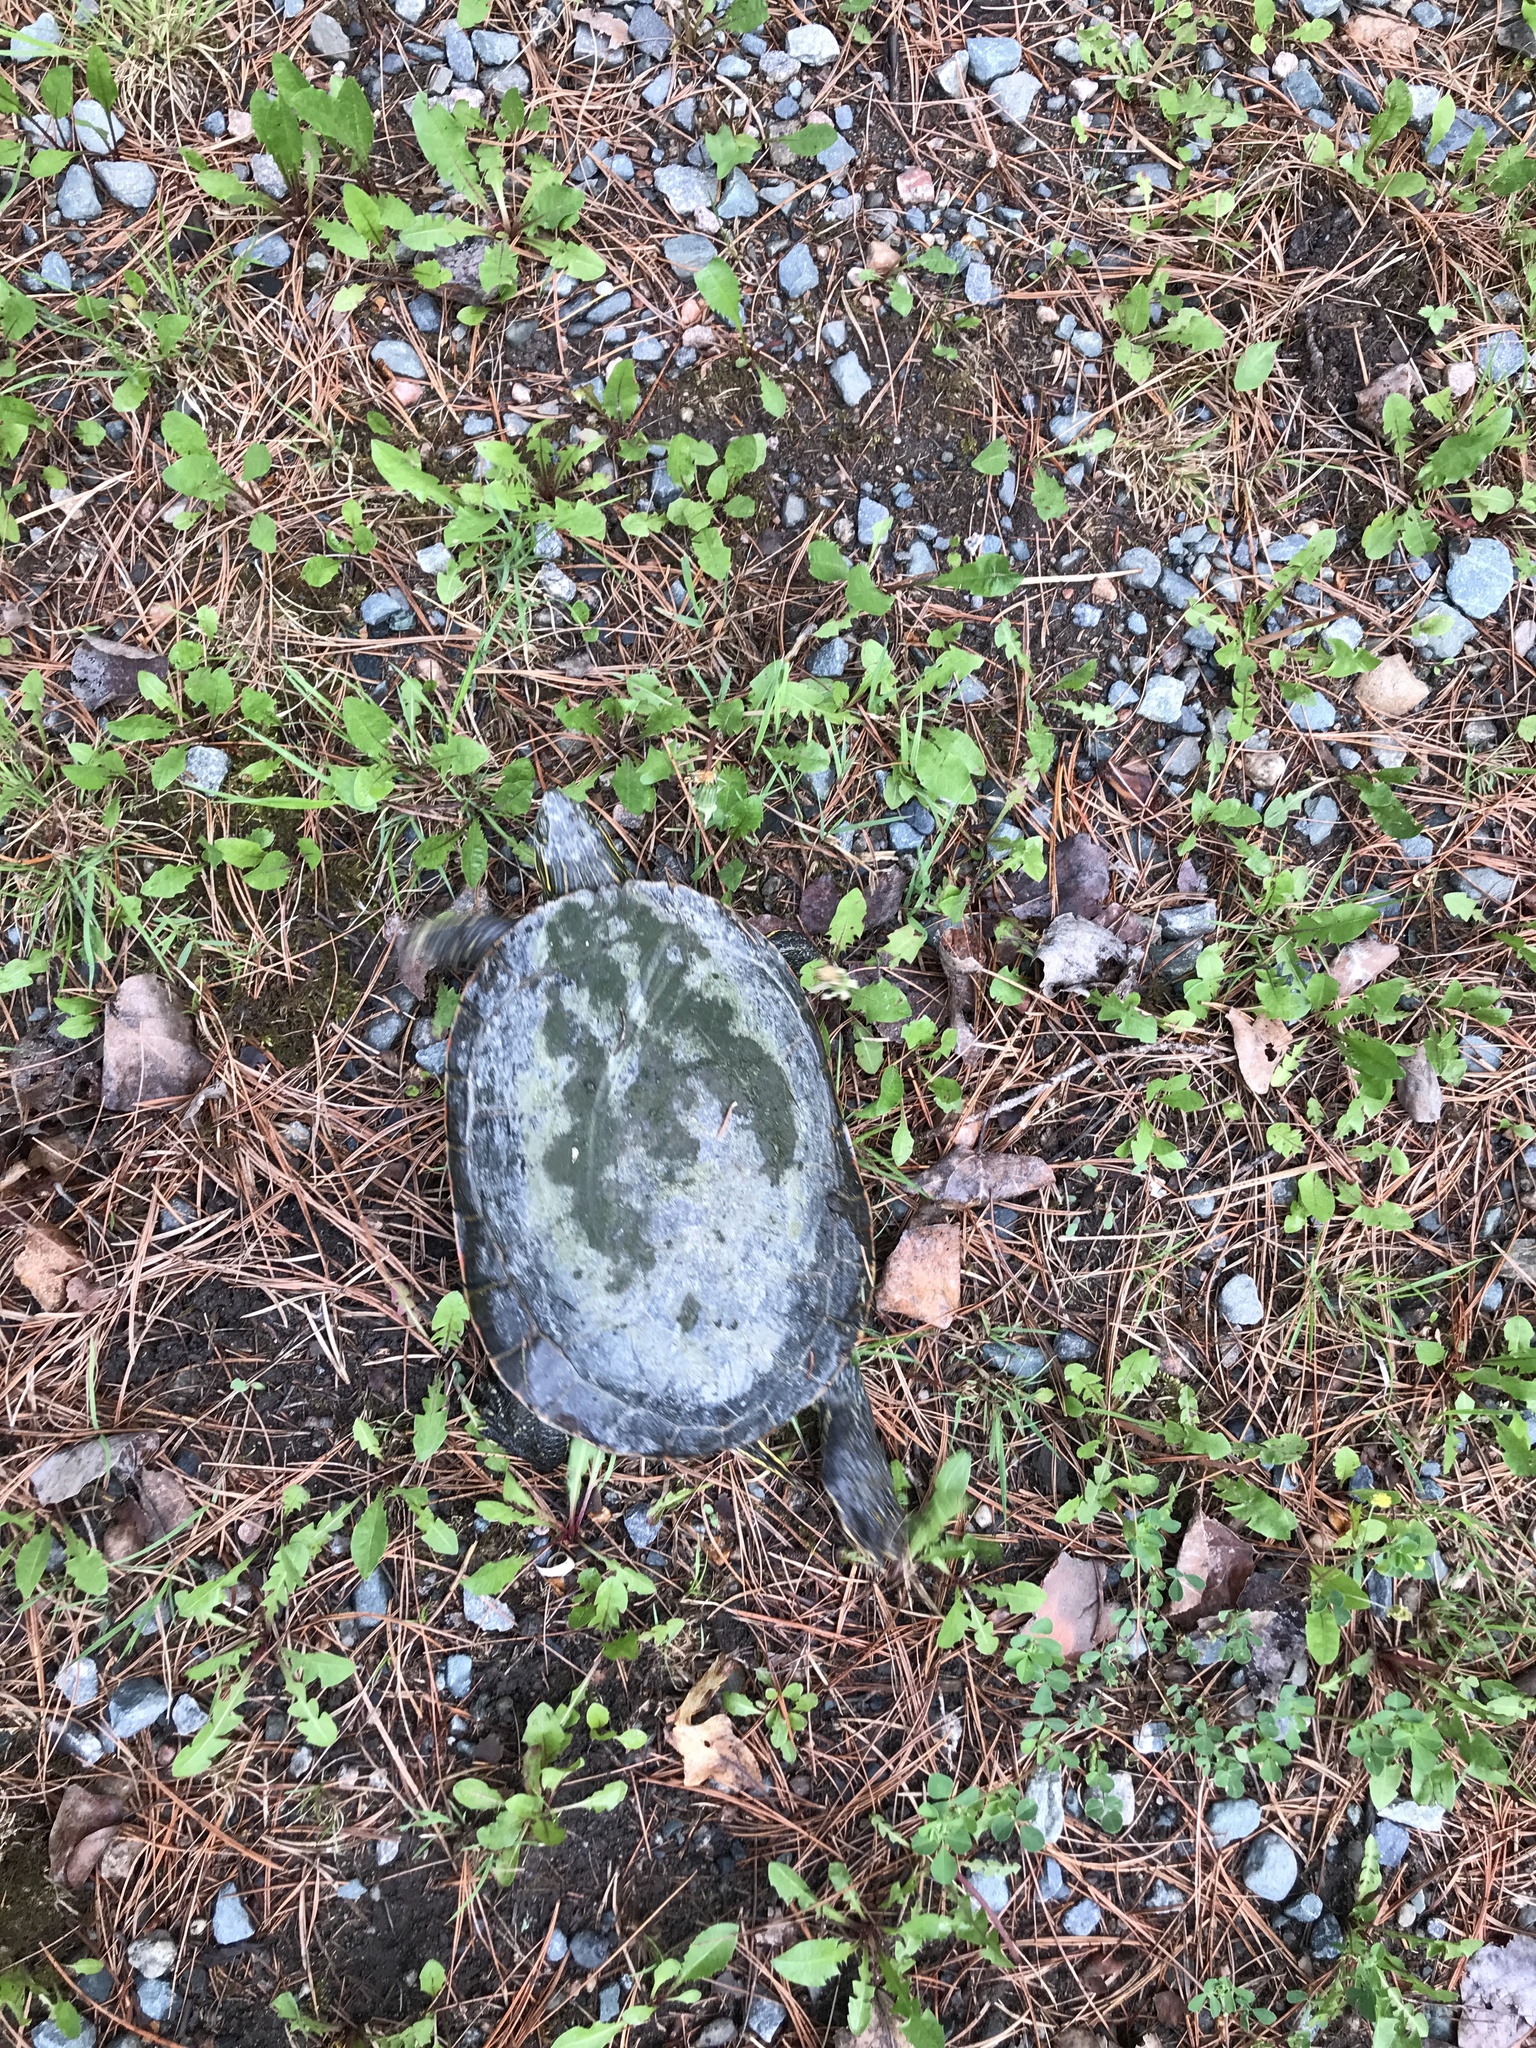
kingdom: Animalia
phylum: Chordata
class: Testudines
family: Emydidae
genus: Chrysemys
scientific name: Chrysemys picta
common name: Painted turtle
